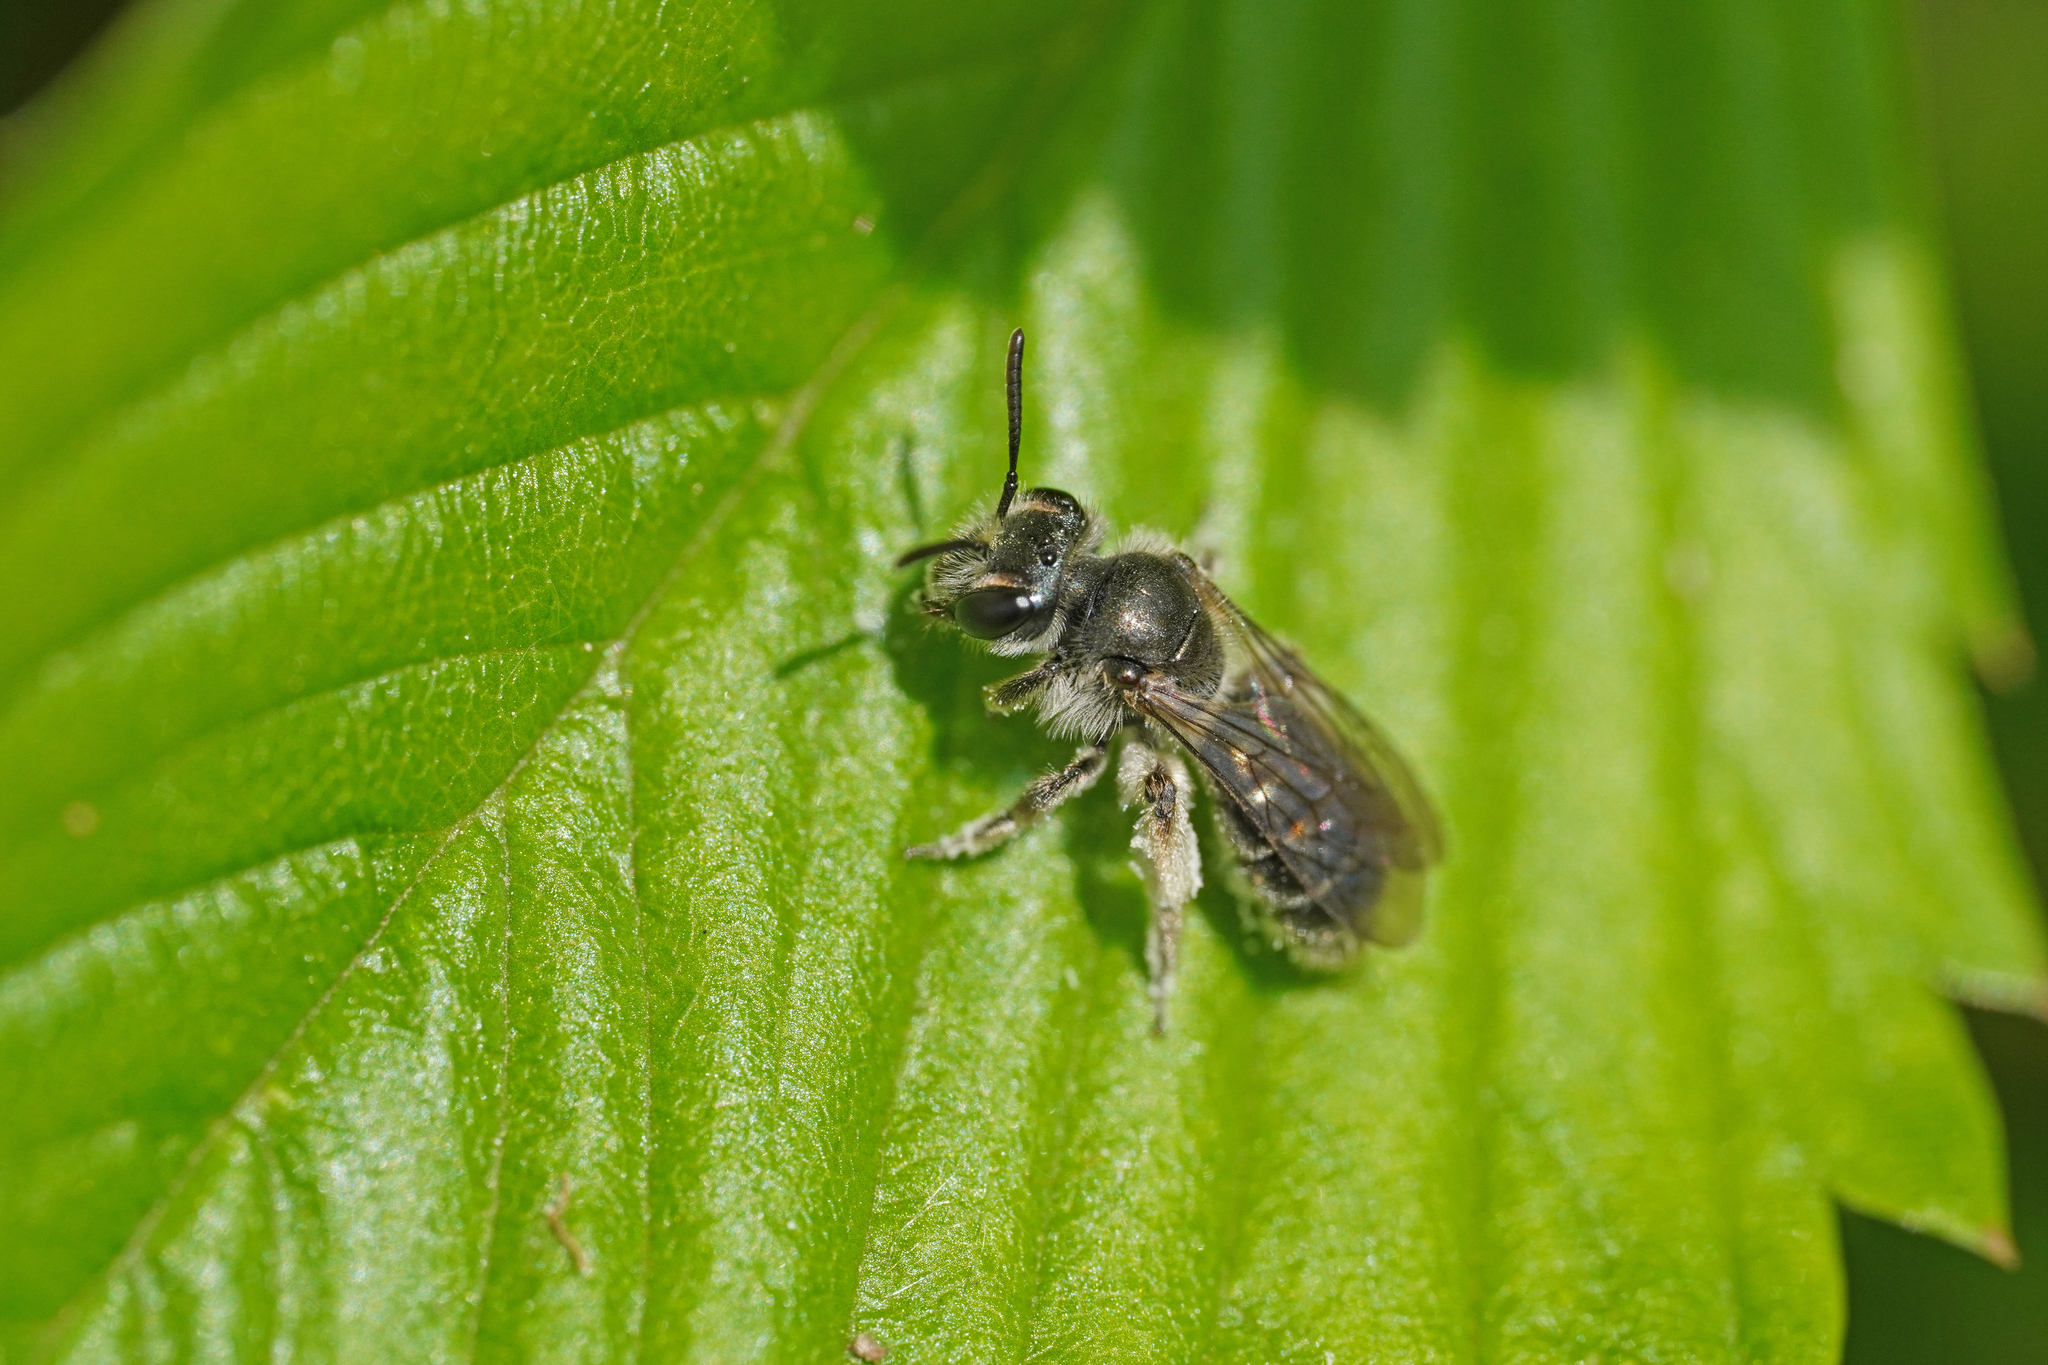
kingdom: Animalia
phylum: Arthropoda
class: Insecta
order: Hymenoptera
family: Andrenidae
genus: Andrena
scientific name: Andrena viridescens
